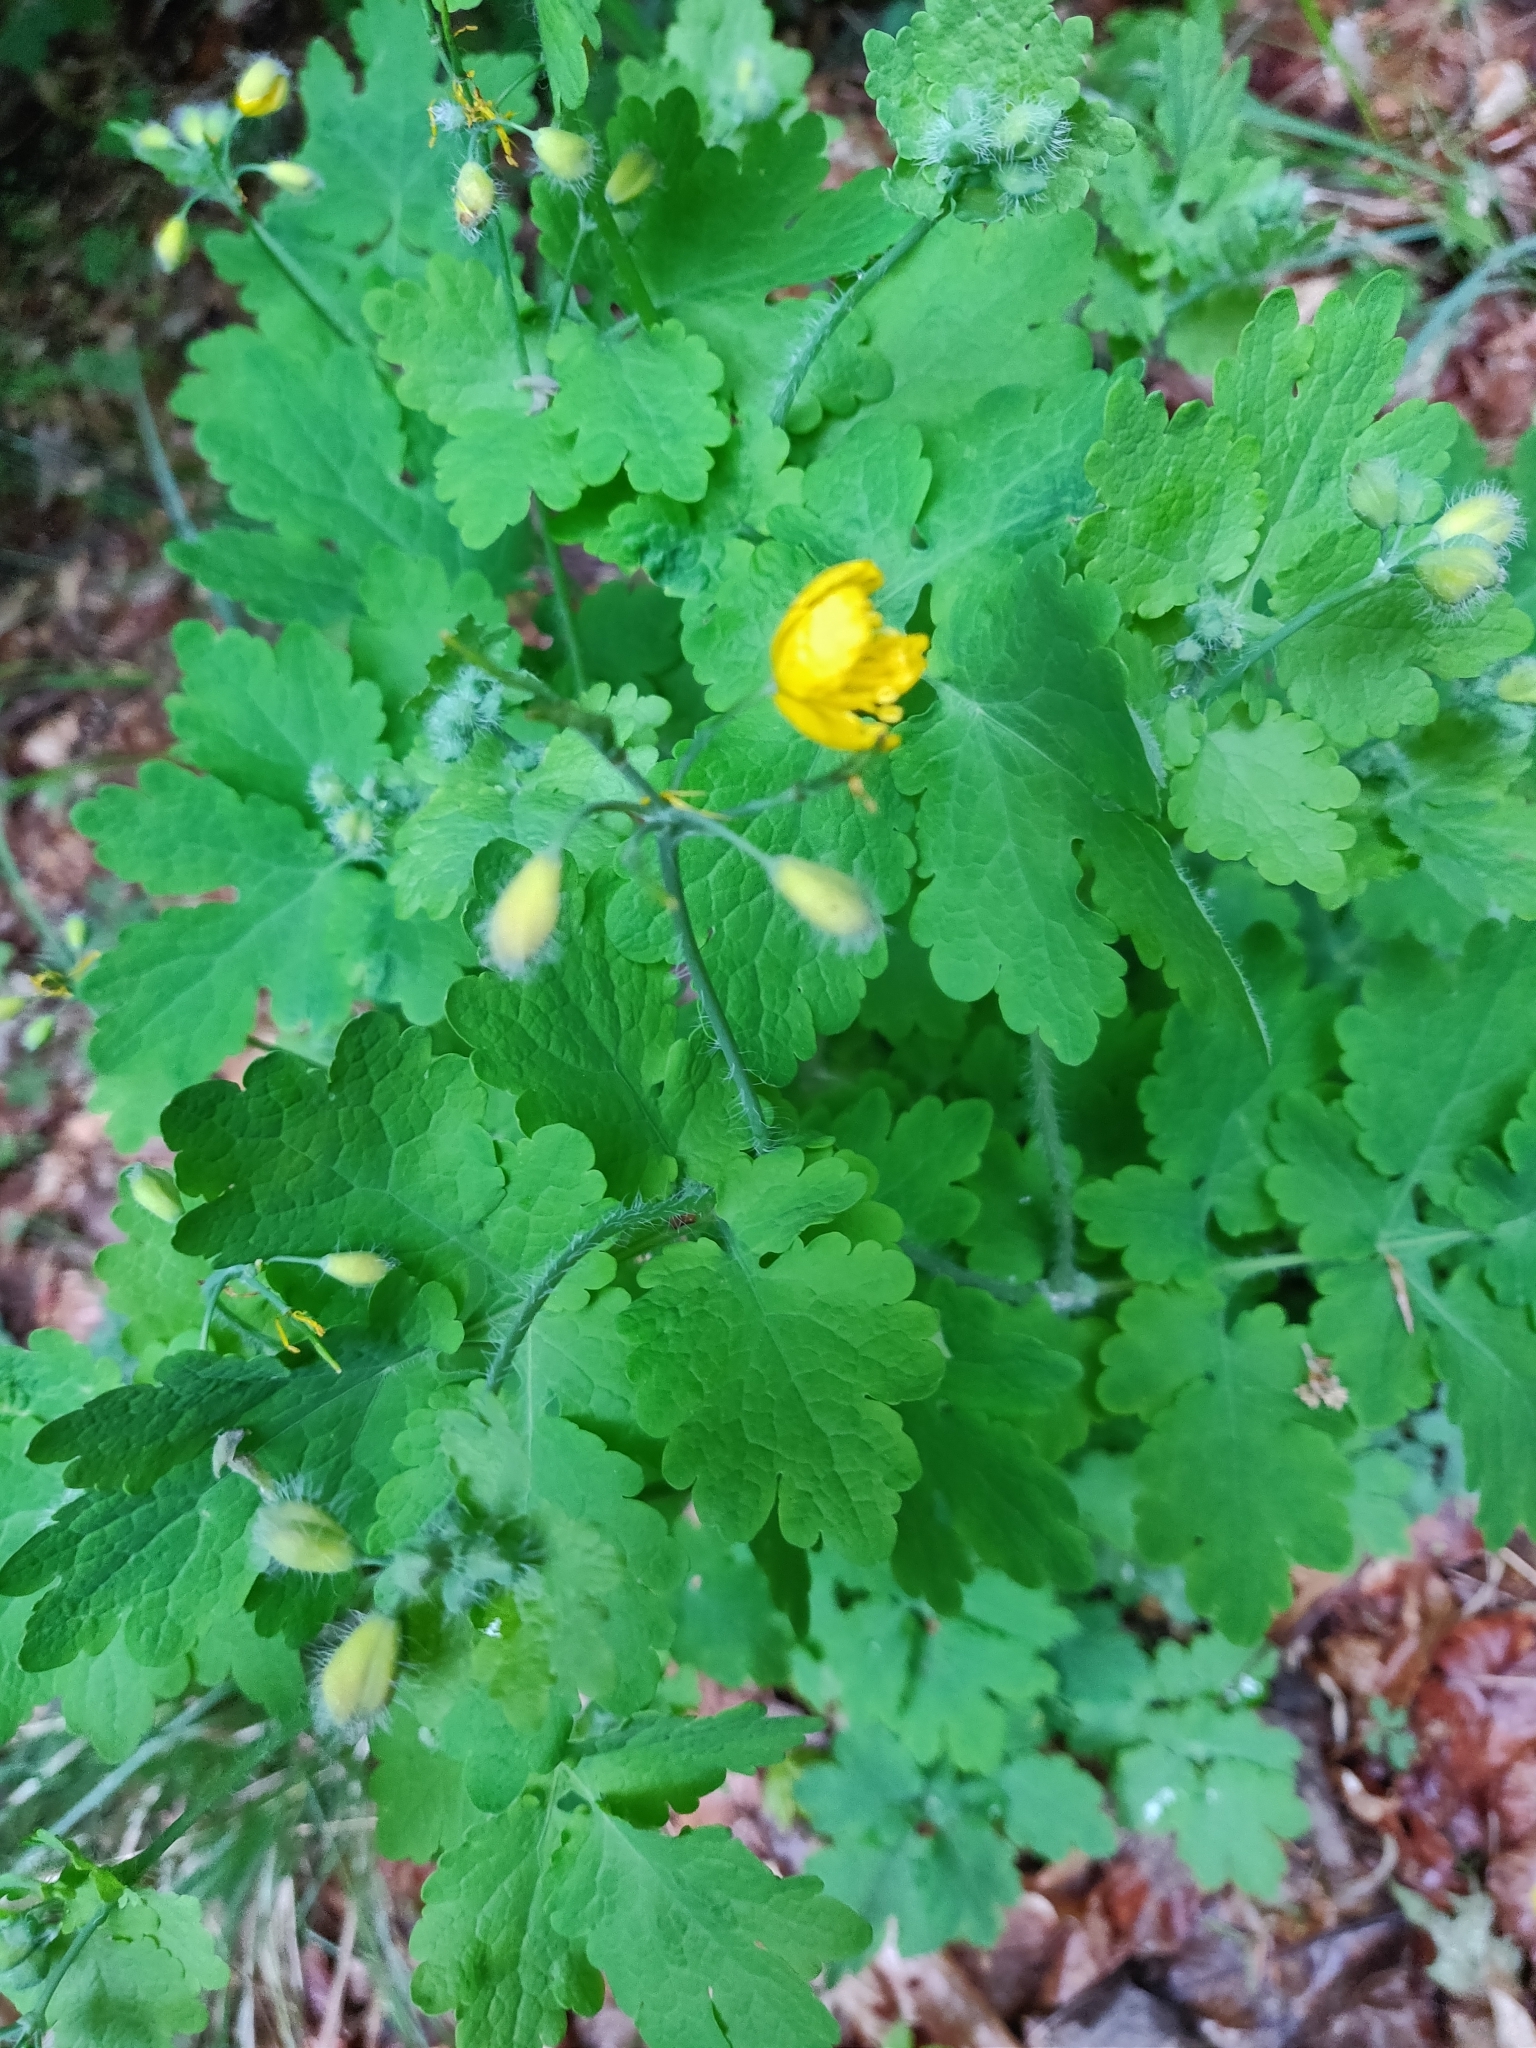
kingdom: Plantae
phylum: Tracheophyta
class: Magnoliopsida
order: Ranunculales
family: Papaveraceae
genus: Chelidonium
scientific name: Chelidonium majus
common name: Greater celandine
